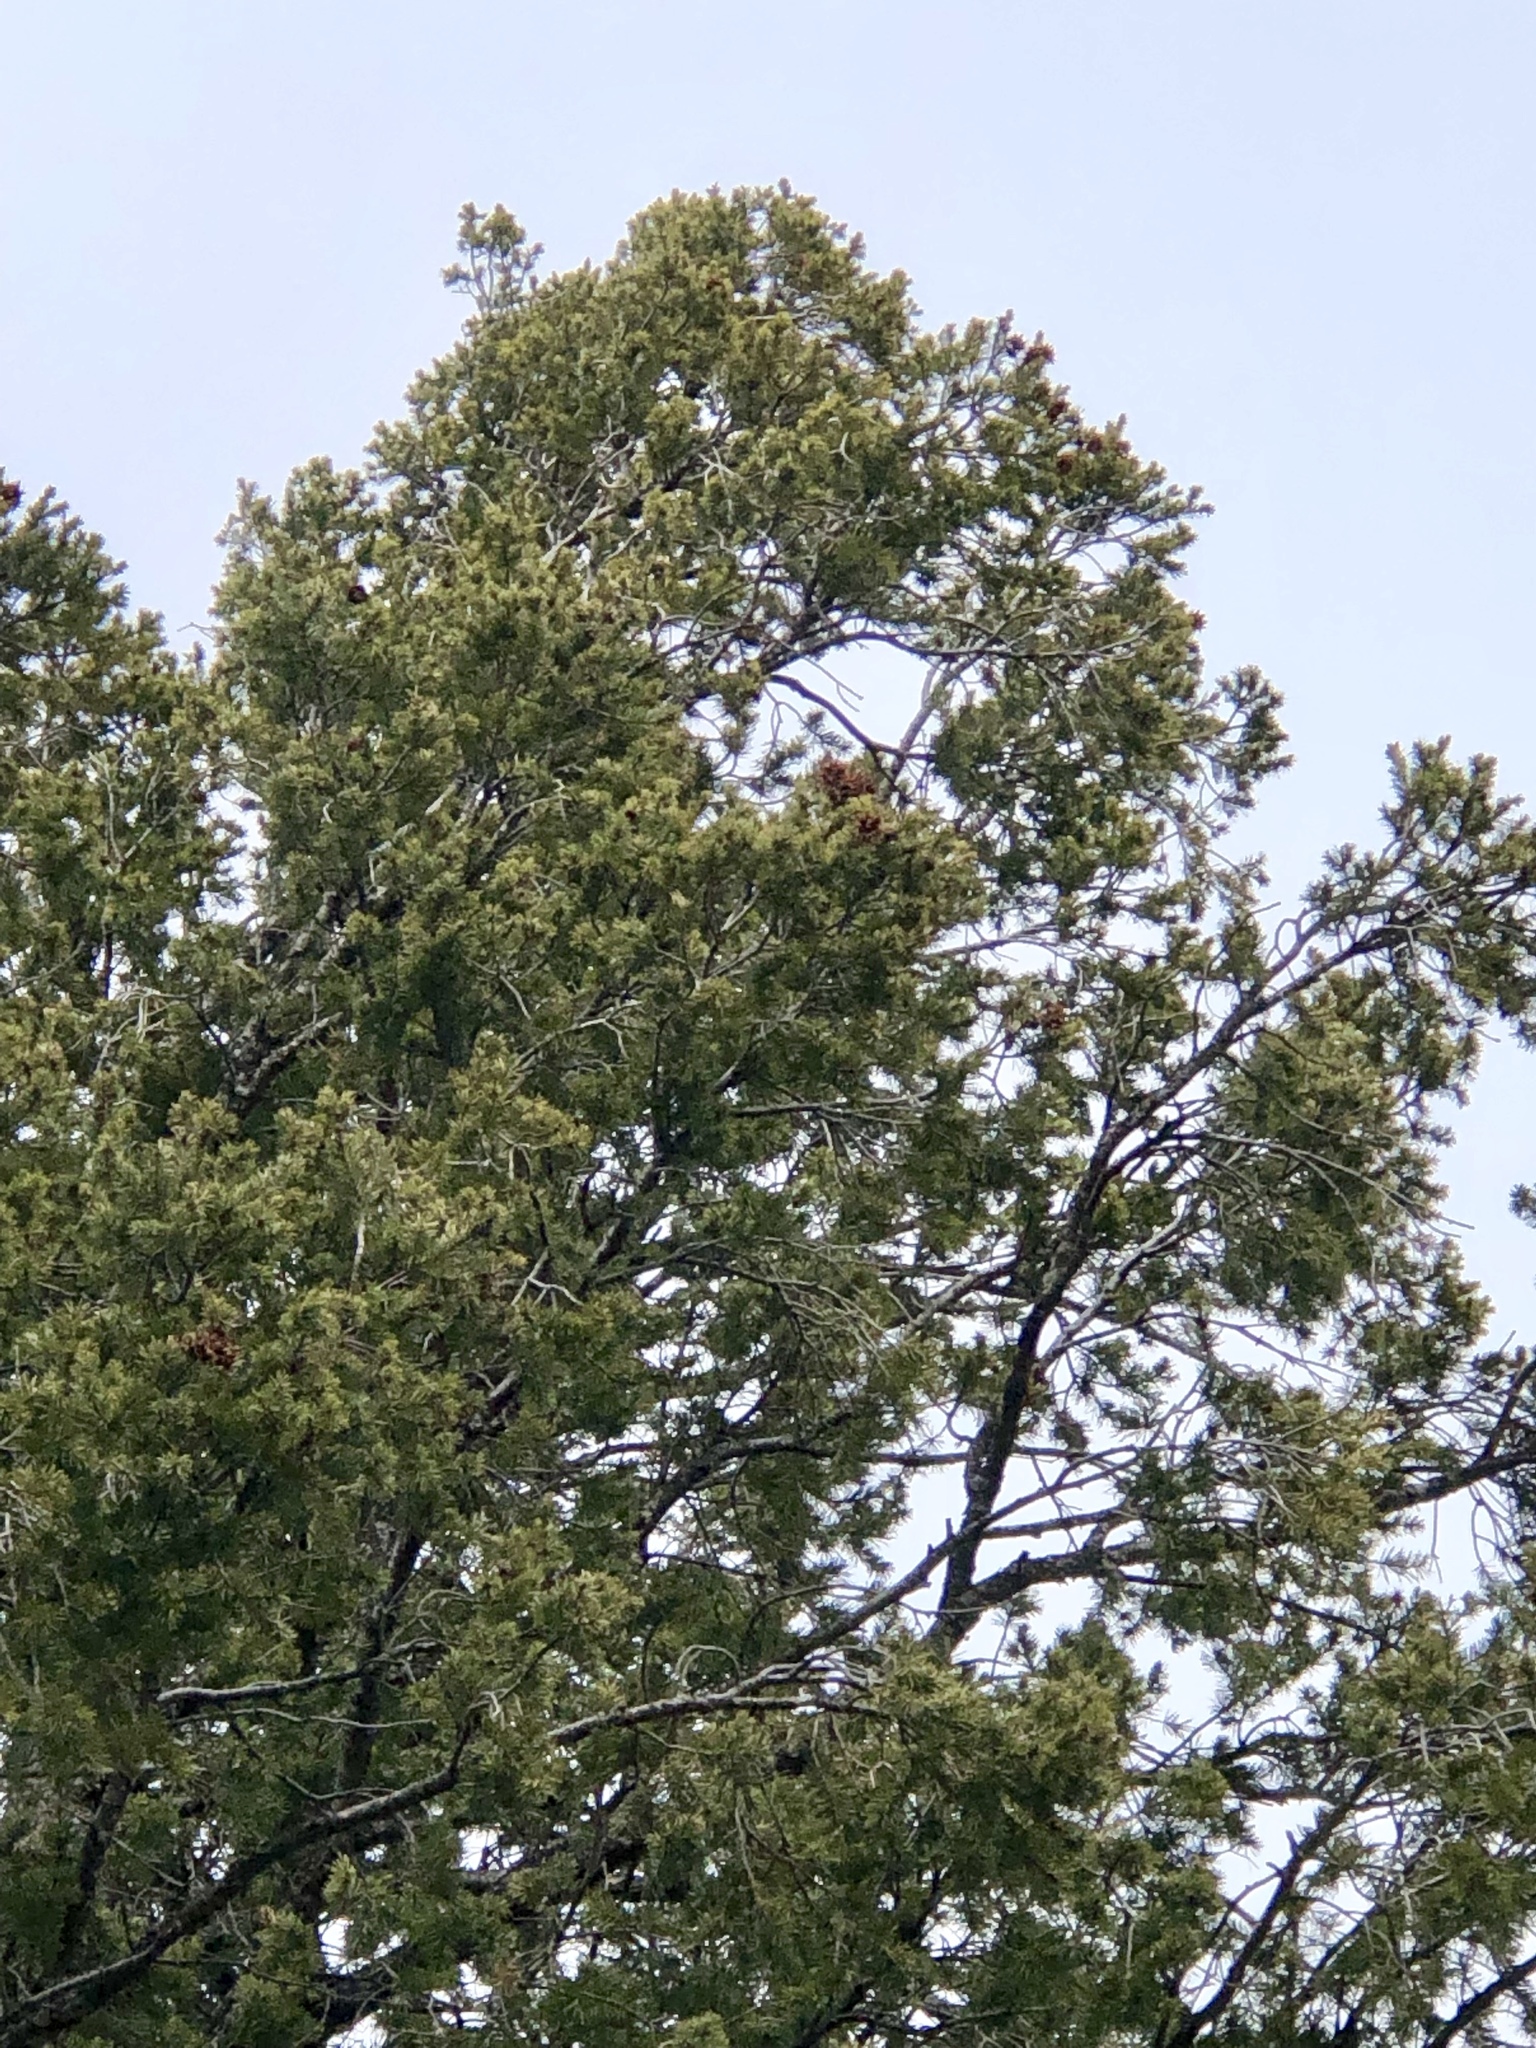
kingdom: Plantae
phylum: Tracheophyta
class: Pinopsida
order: Pinales
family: Pinaceae
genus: Pseudotsuga
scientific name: Pseudotsuga menziesii
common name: Douglas fir
